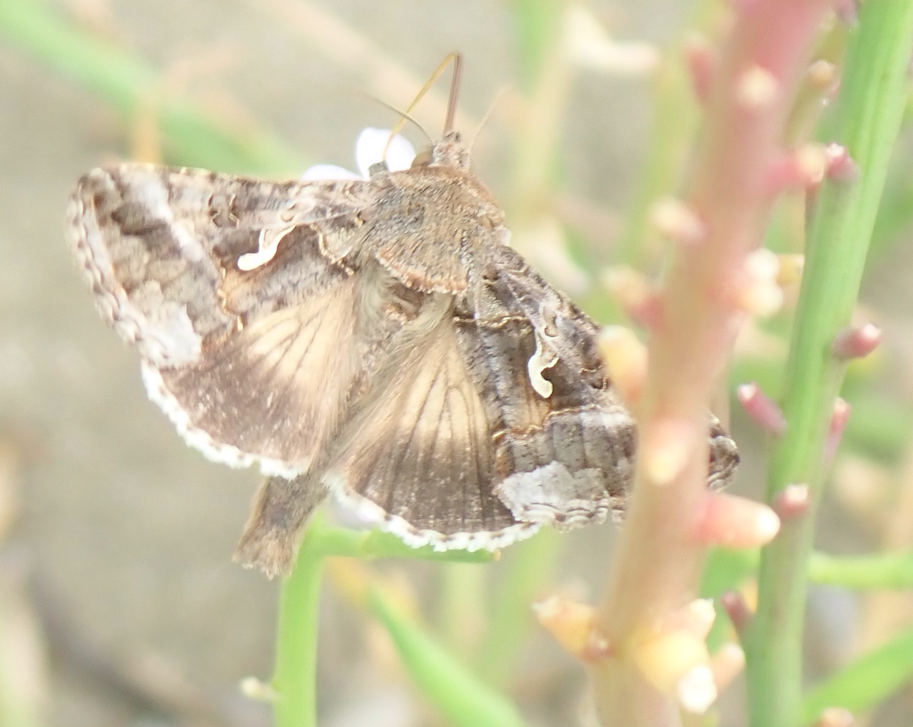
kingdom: Animalia
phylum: Arthropoda
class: Insecta
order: Lepidoptera
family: Noctuidae
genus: Autographa
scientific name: Autographa gamma
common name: Silver y
